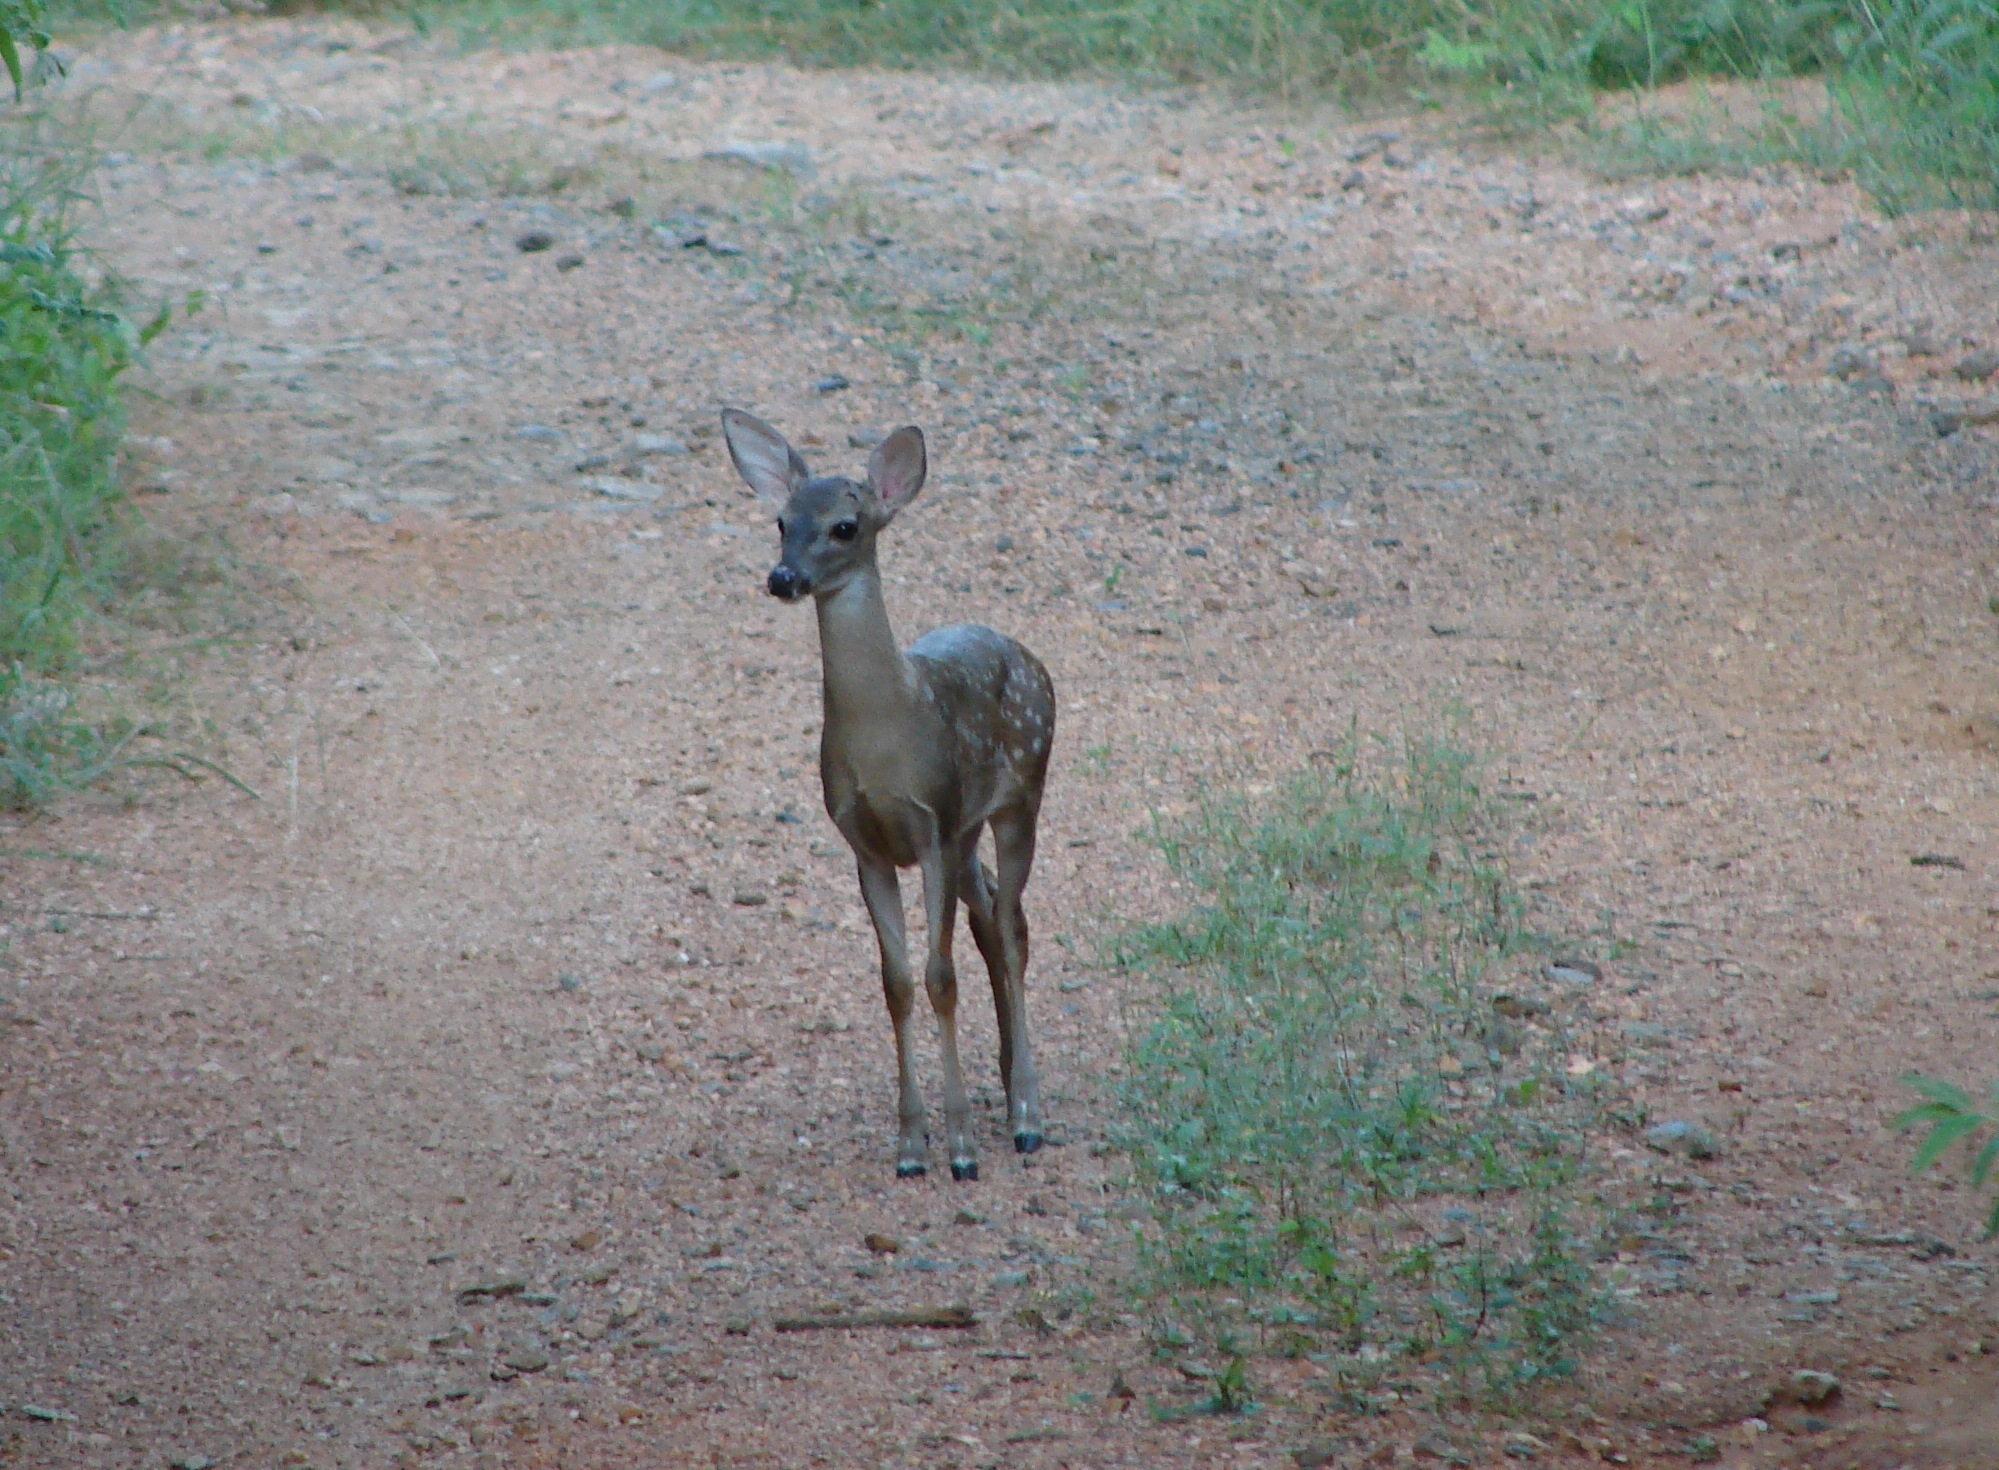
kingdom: Animalia
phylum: Chordata
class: Mammalia
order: Artiodactyla
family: Cervidae
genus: Odocoileus
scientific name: Odocoileus virginianus
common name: White-tailed deer
